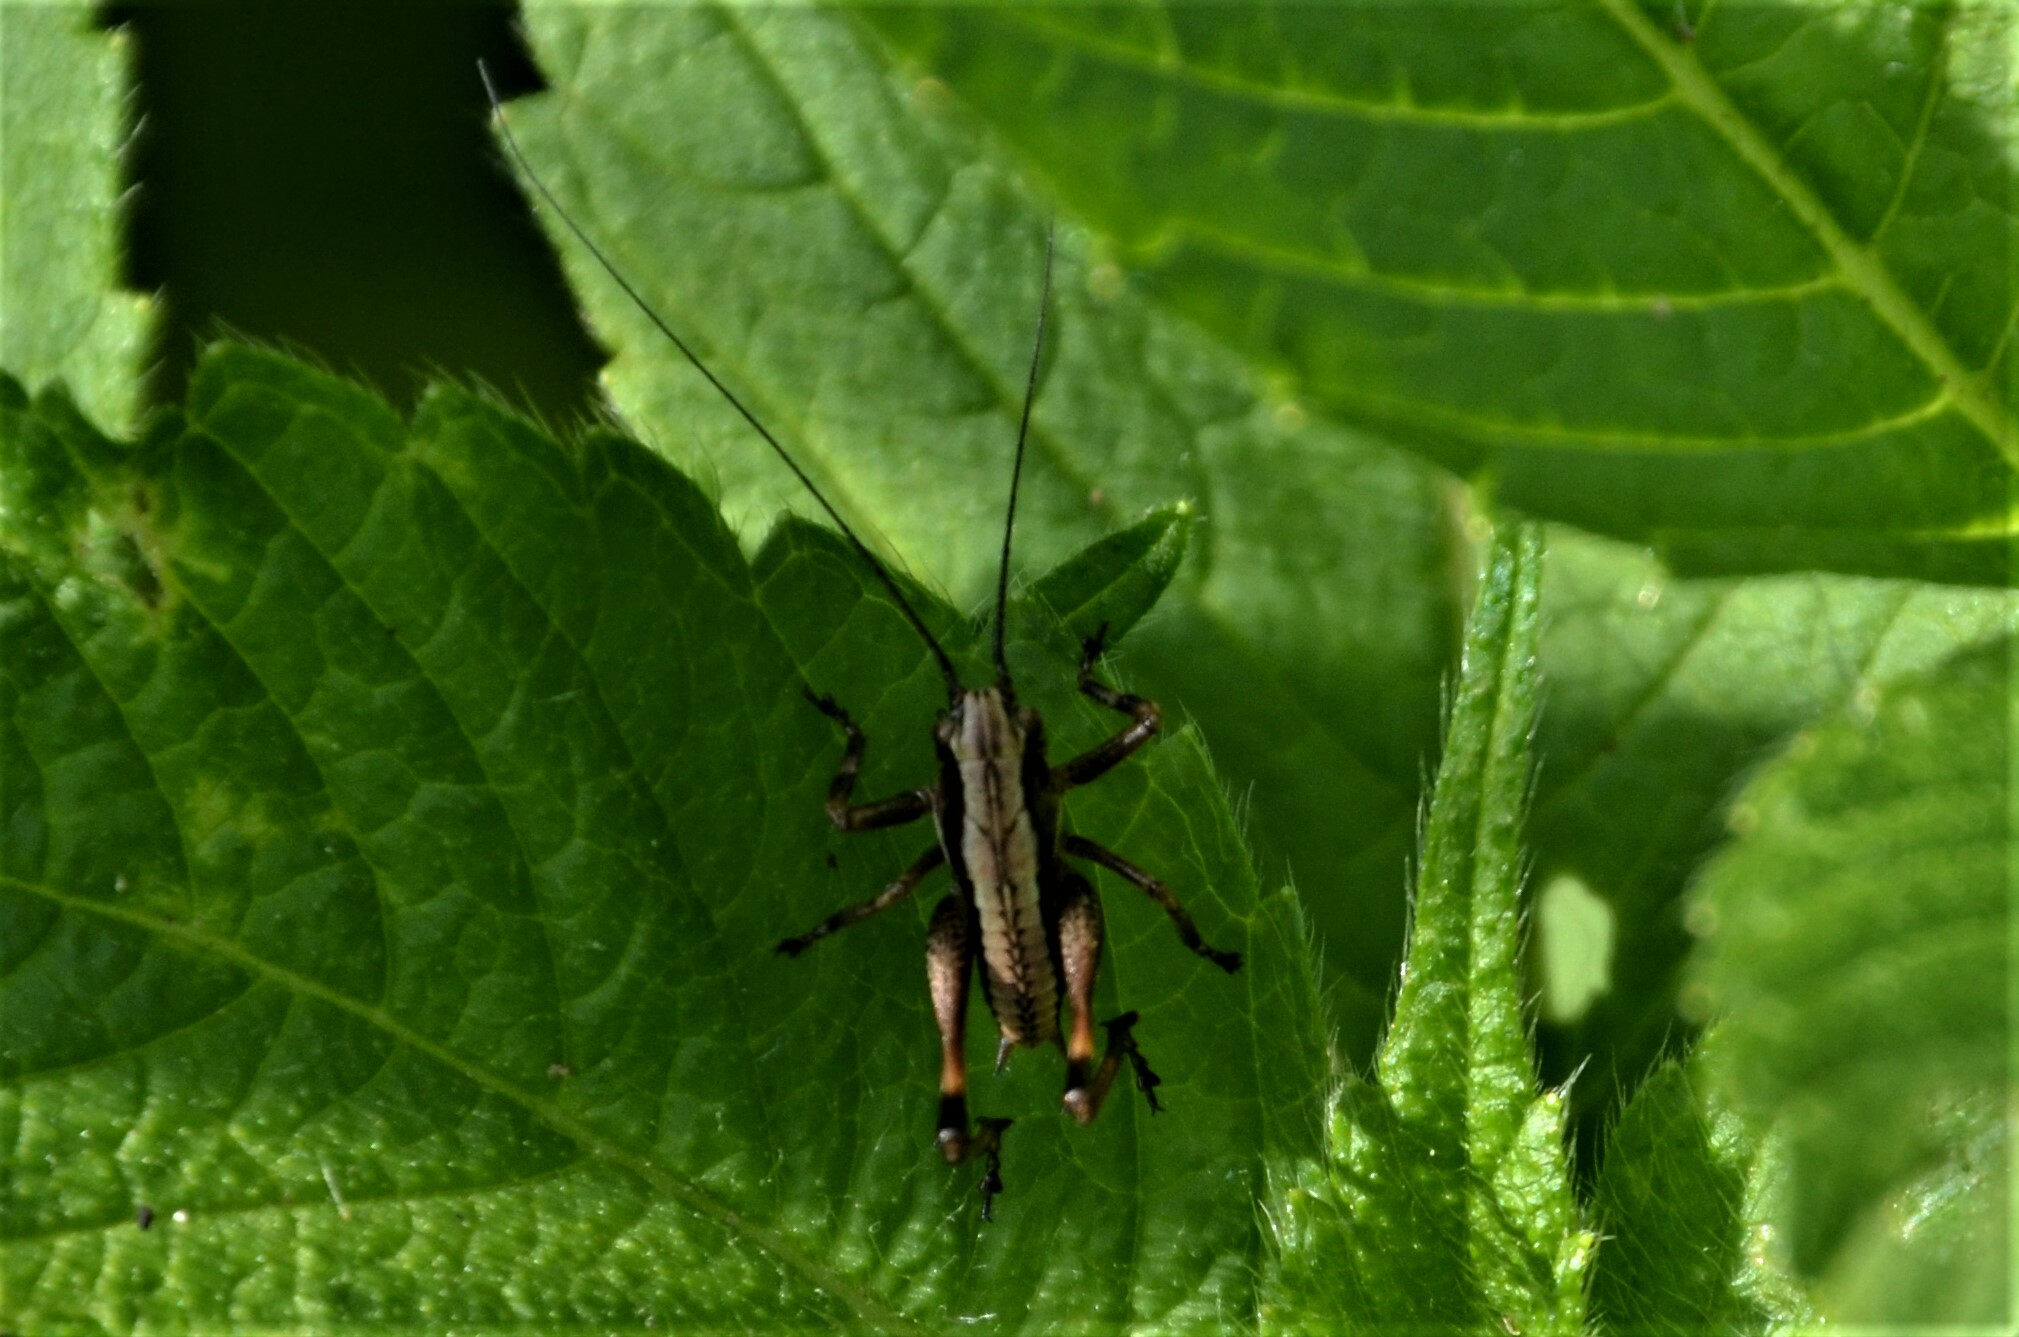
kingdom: Animalia
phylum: Arthropoda
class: Insecta
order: Orthoptera
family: Tettigoniidae
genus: Pholidoptera
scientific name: Pholidoptera griseoaptera
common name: Dark bush-cricket
